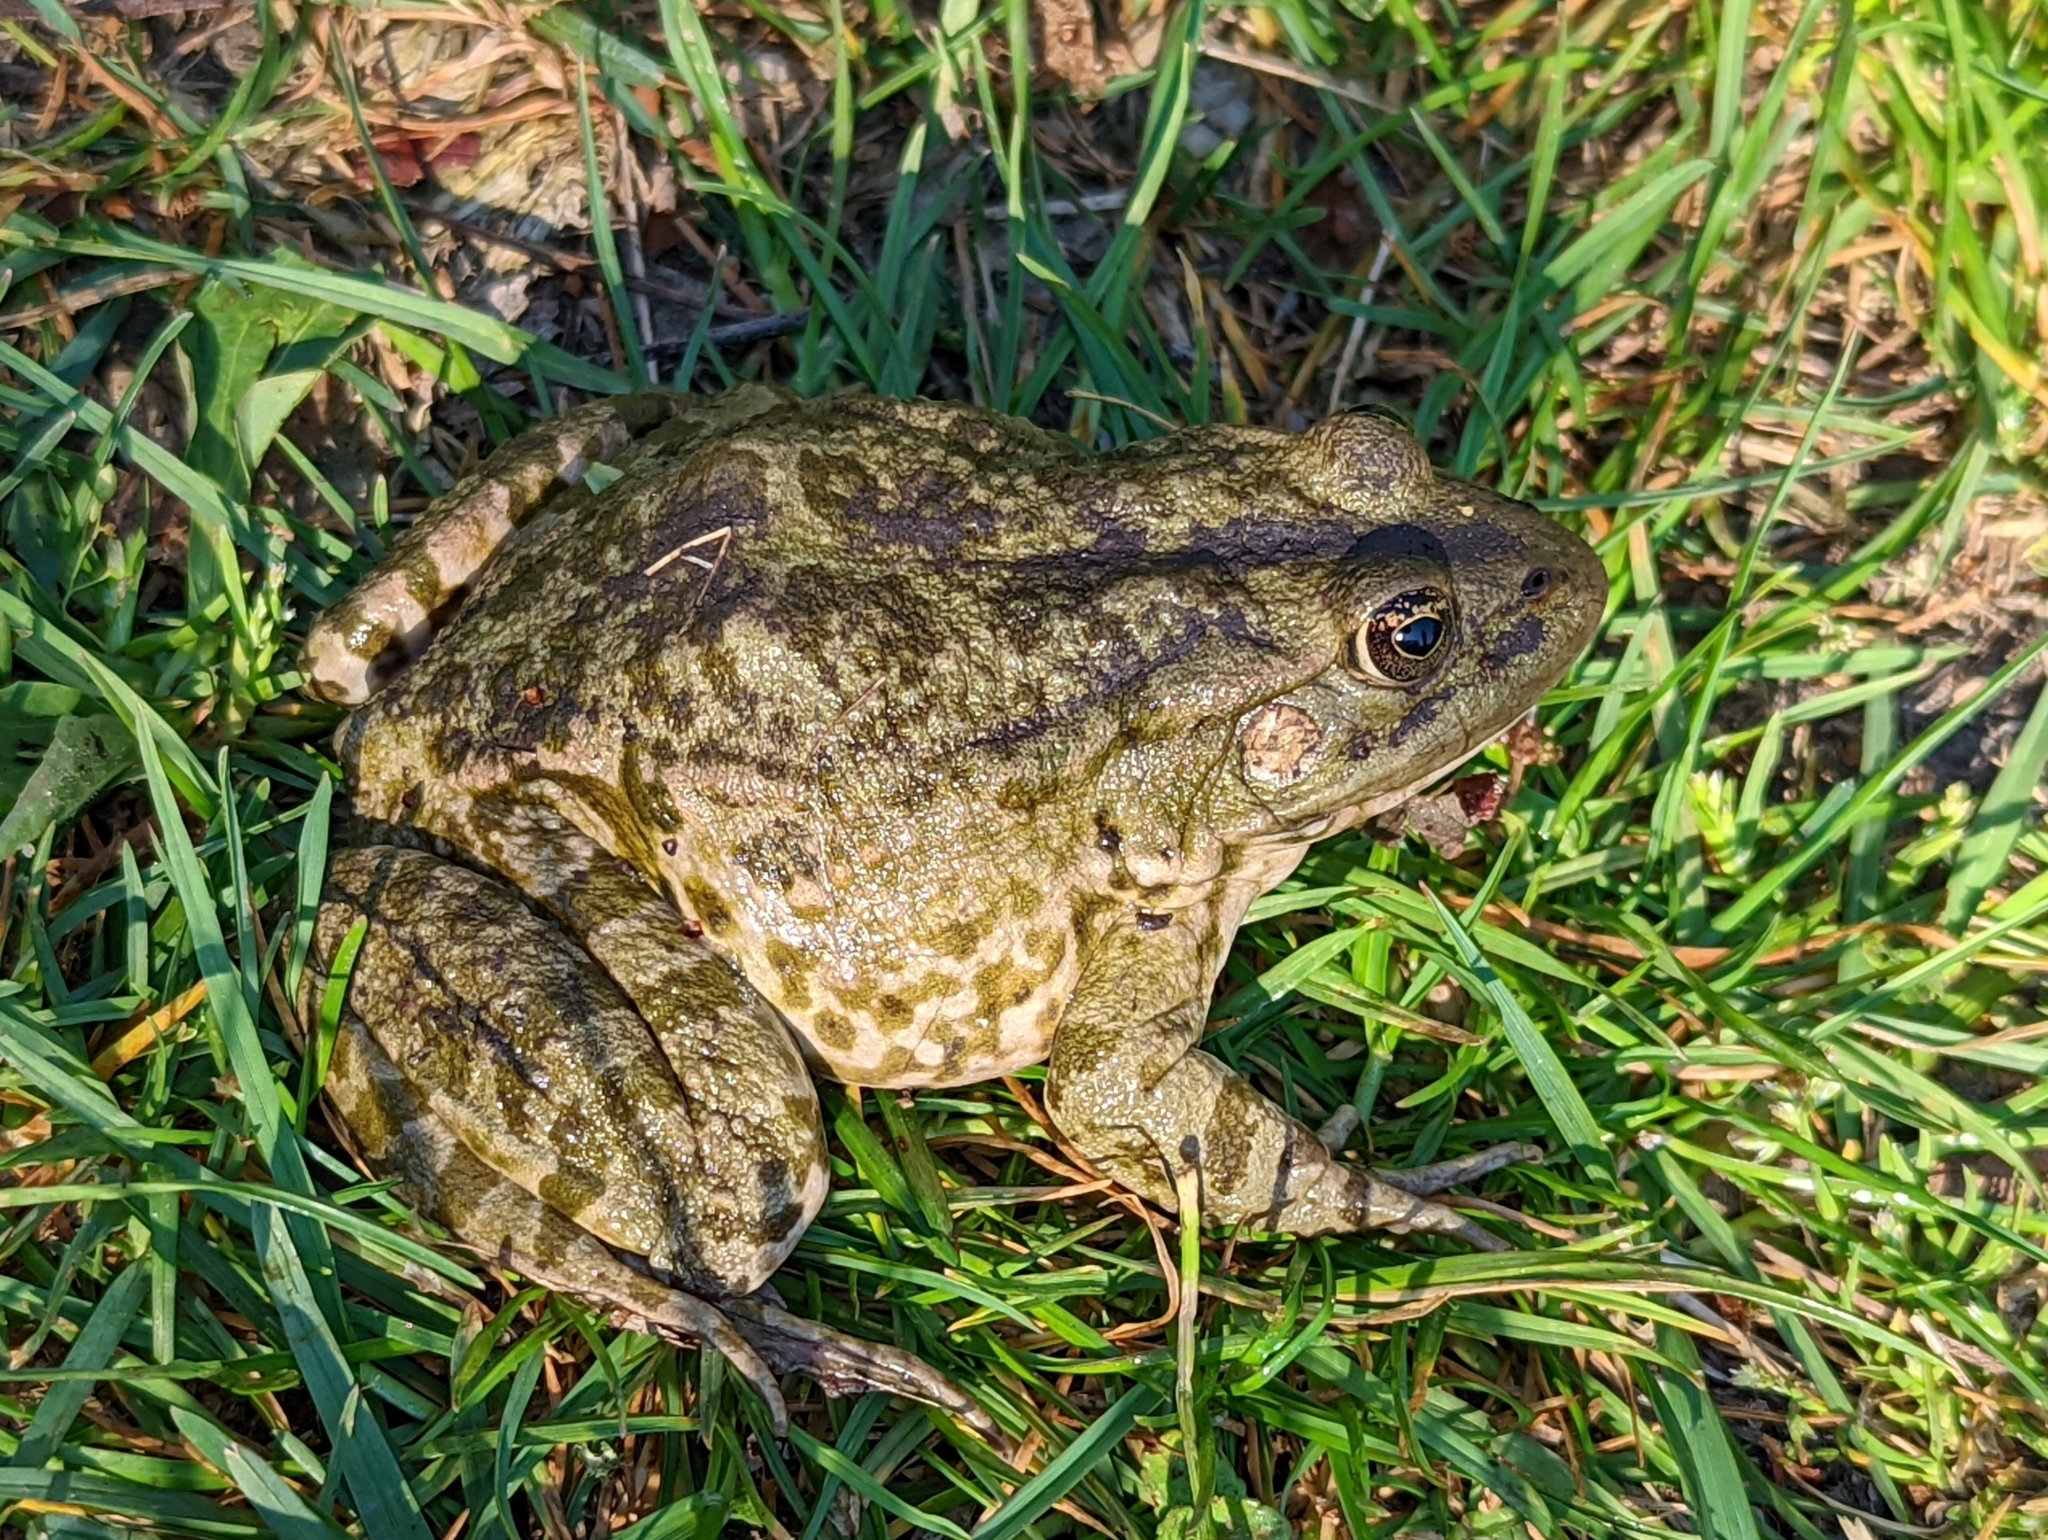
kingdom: Animalia
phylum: Chordata
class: Amphibia
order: Anura
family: Ranidae
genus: Pelophylax
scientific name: Pelophylax ridibundus
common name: Marsh frog
